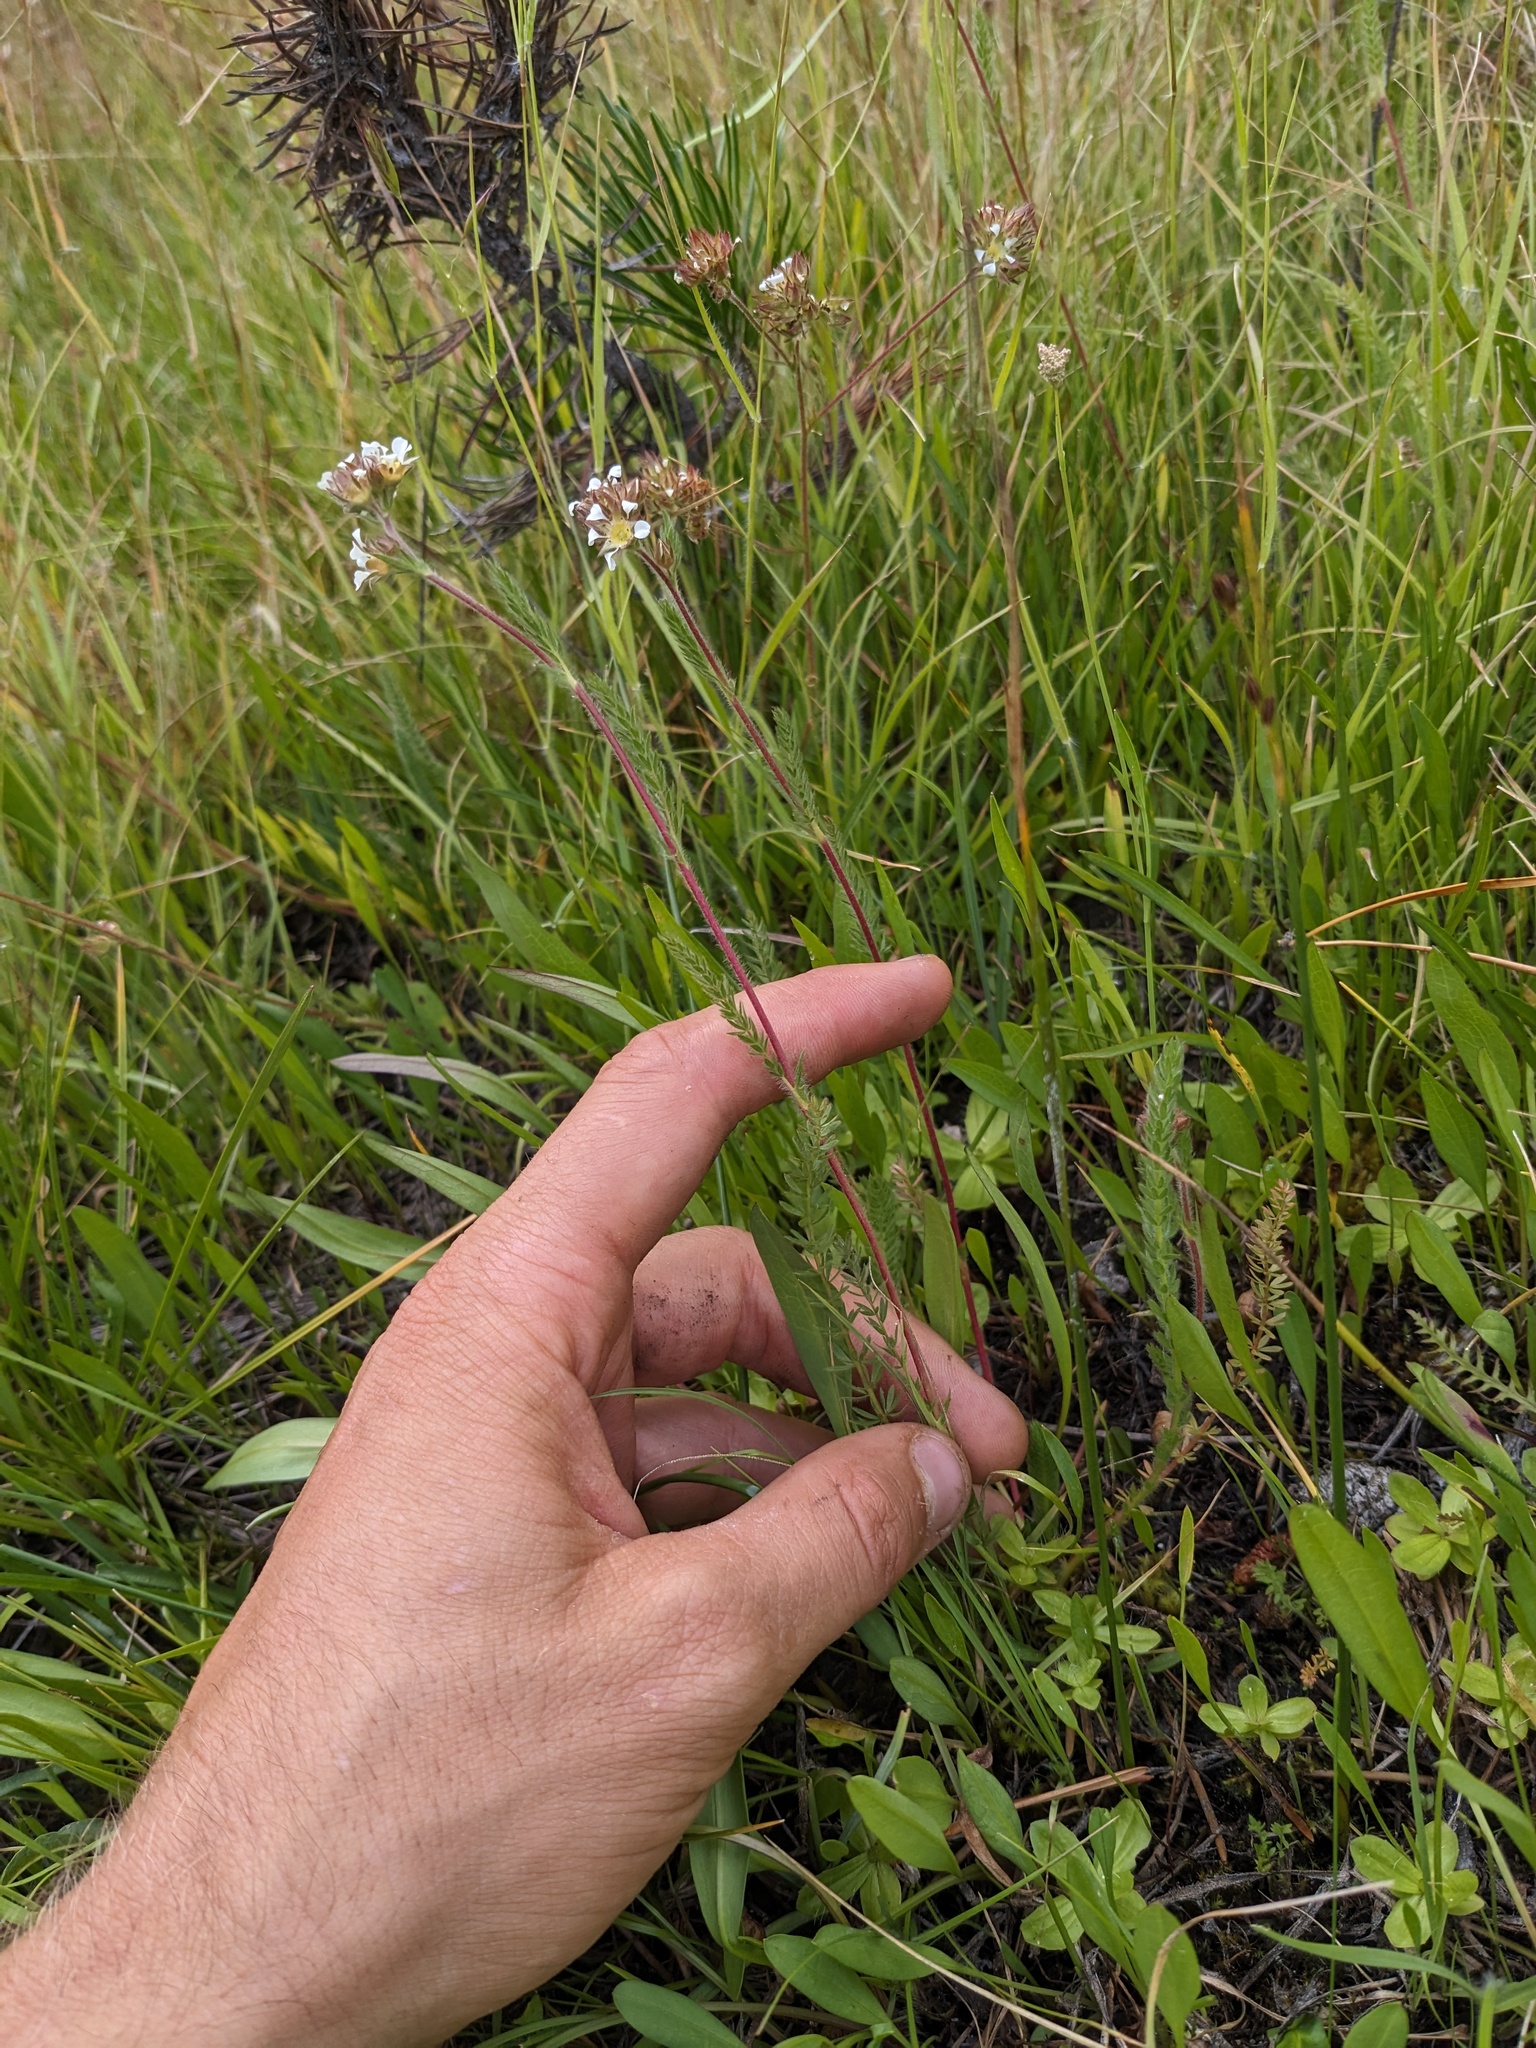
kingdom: Plantae
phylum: Tracheophyta
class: Magnoliopsida
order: Rosales
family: Rosaceae
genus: Potentilla
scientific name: Potentilla
